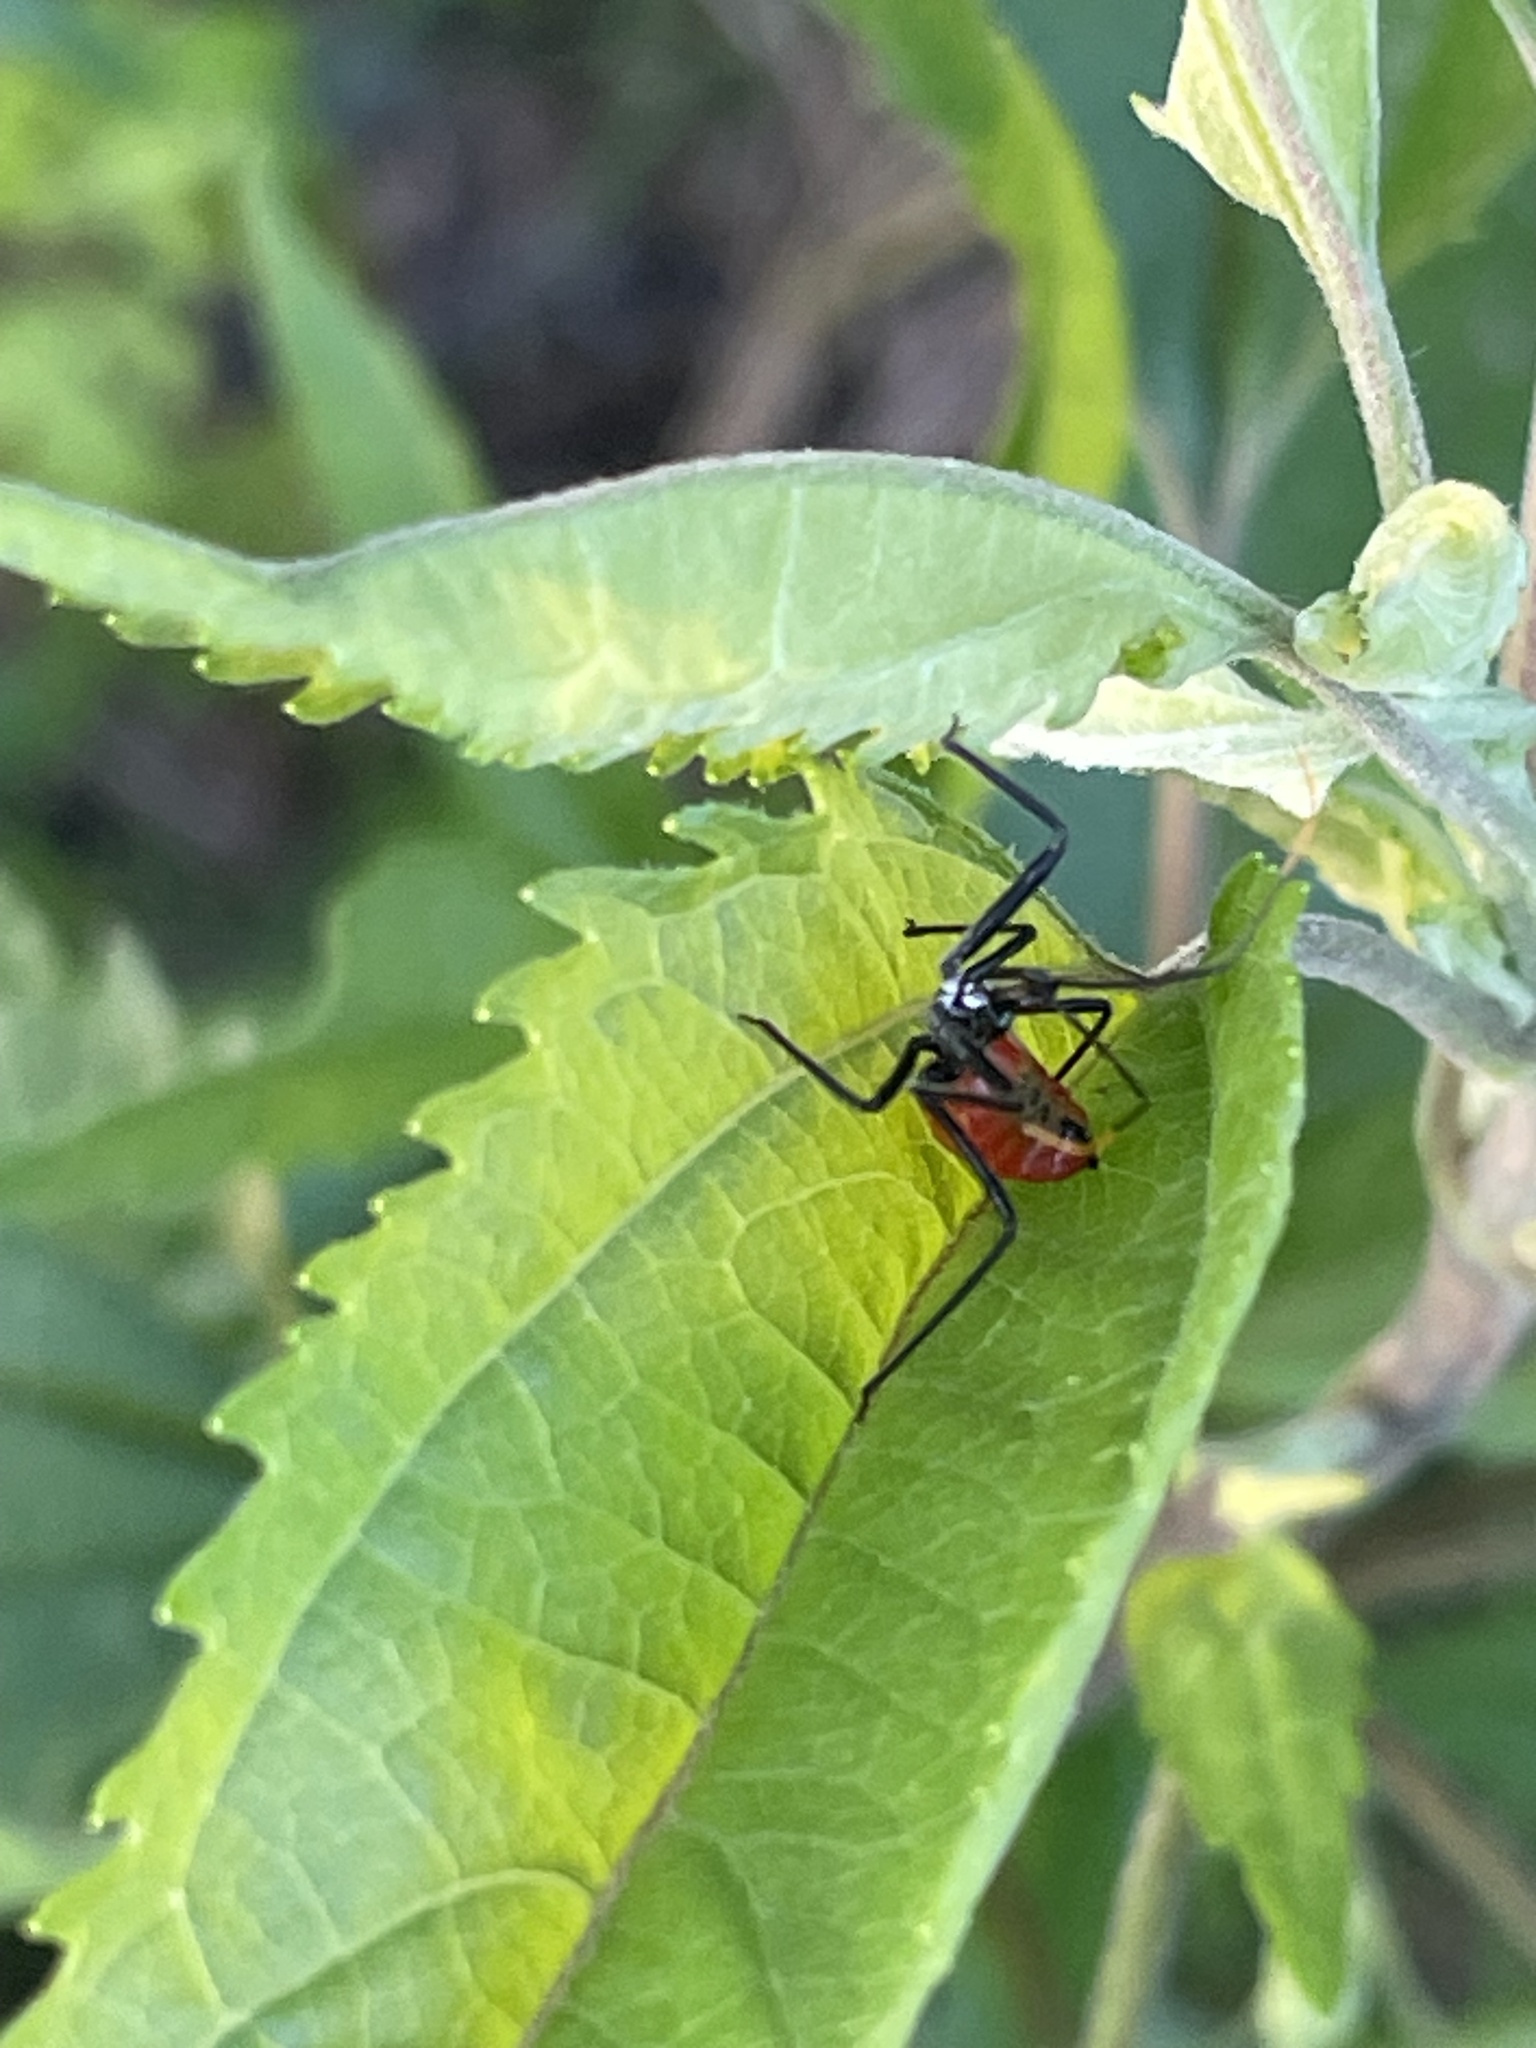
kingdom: Animalia
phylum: Arthropoda
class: Insecta
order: Hemiptera
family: Reduviidae
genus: Arilus
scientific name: Arilus cristatus
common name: North american wheel bug
